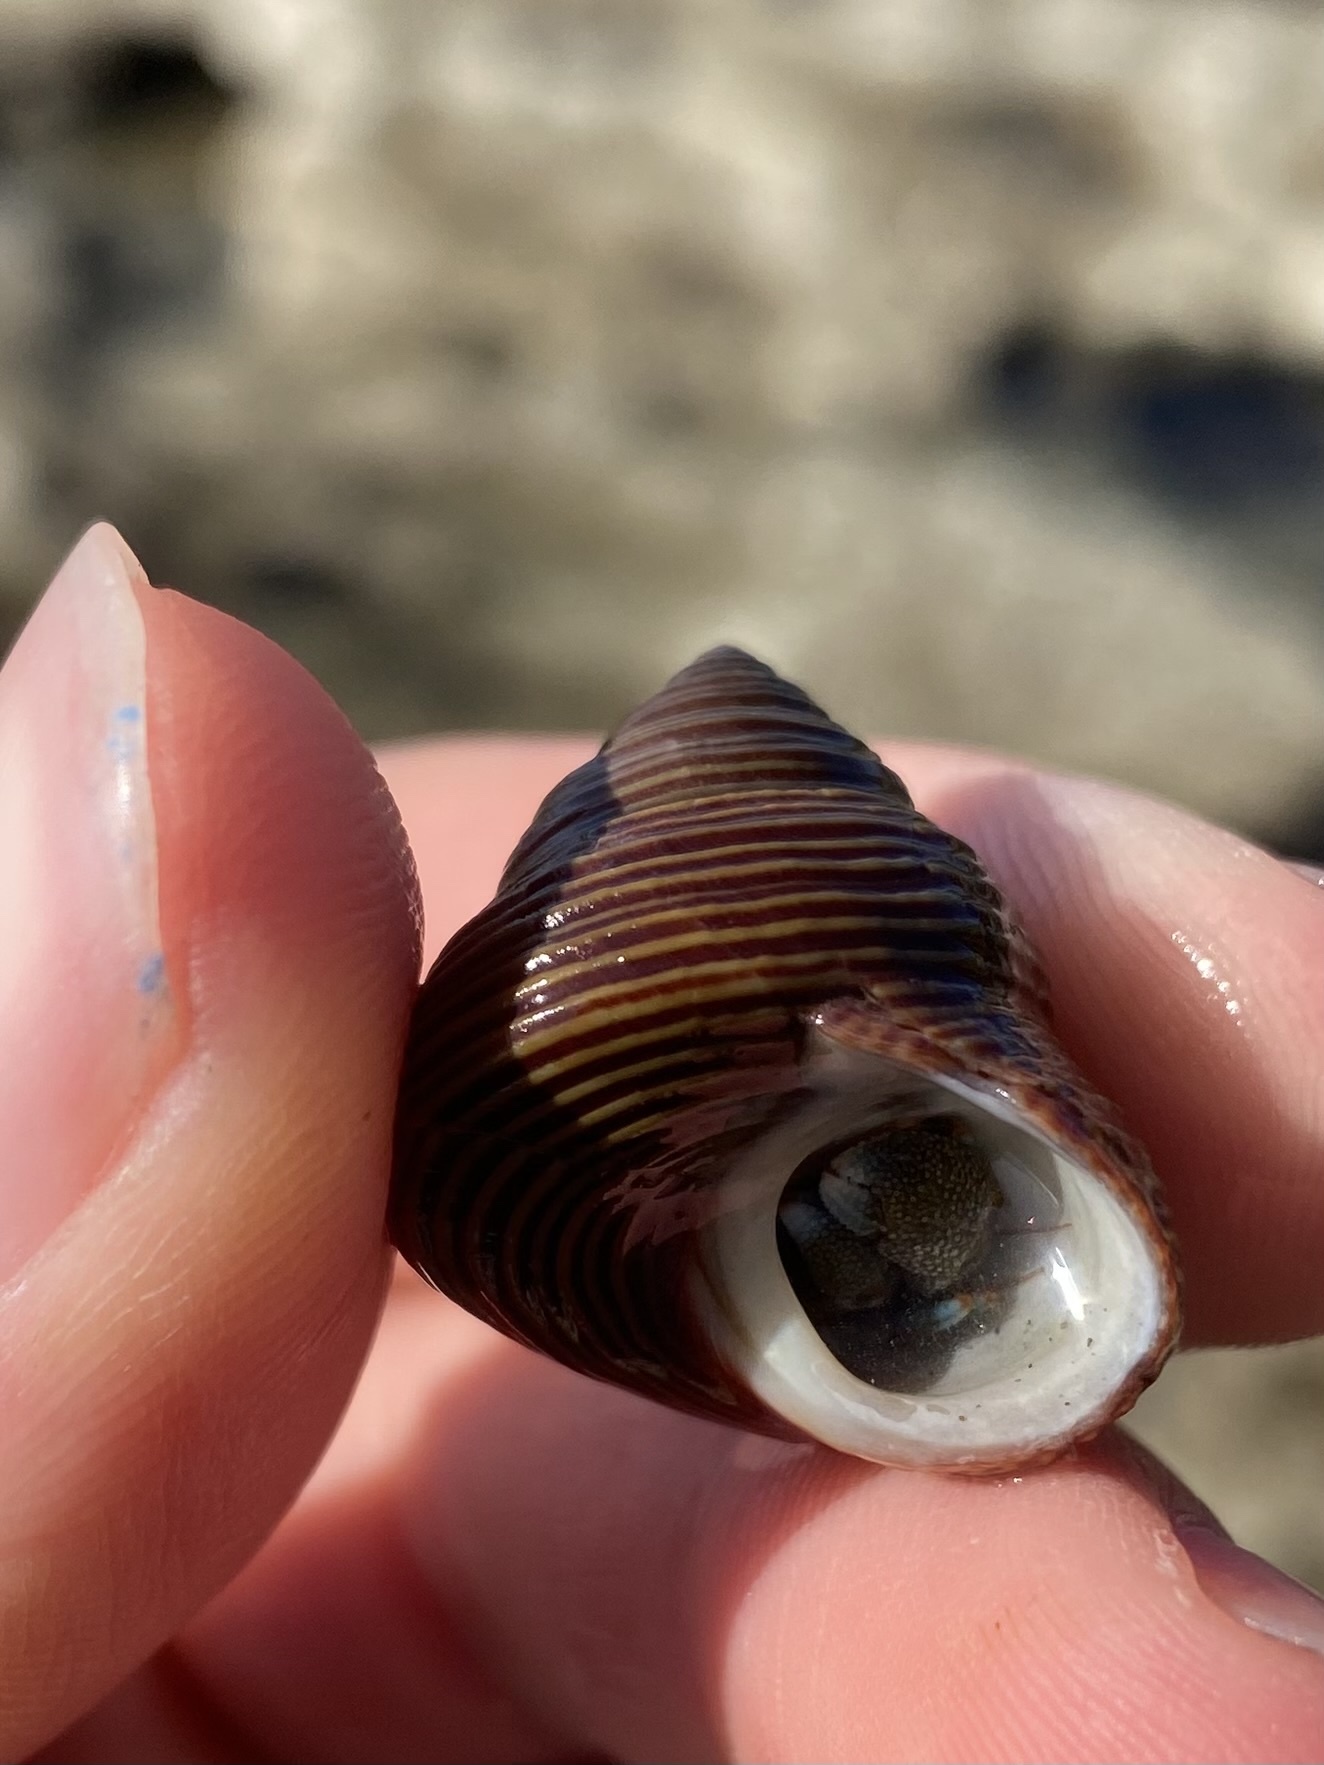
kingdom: Animalia
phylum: Mollusca
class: Gastropoda
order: Trochida
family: Calliostomatidae
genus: Calliostoma
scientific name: Calliostoma ligatum
